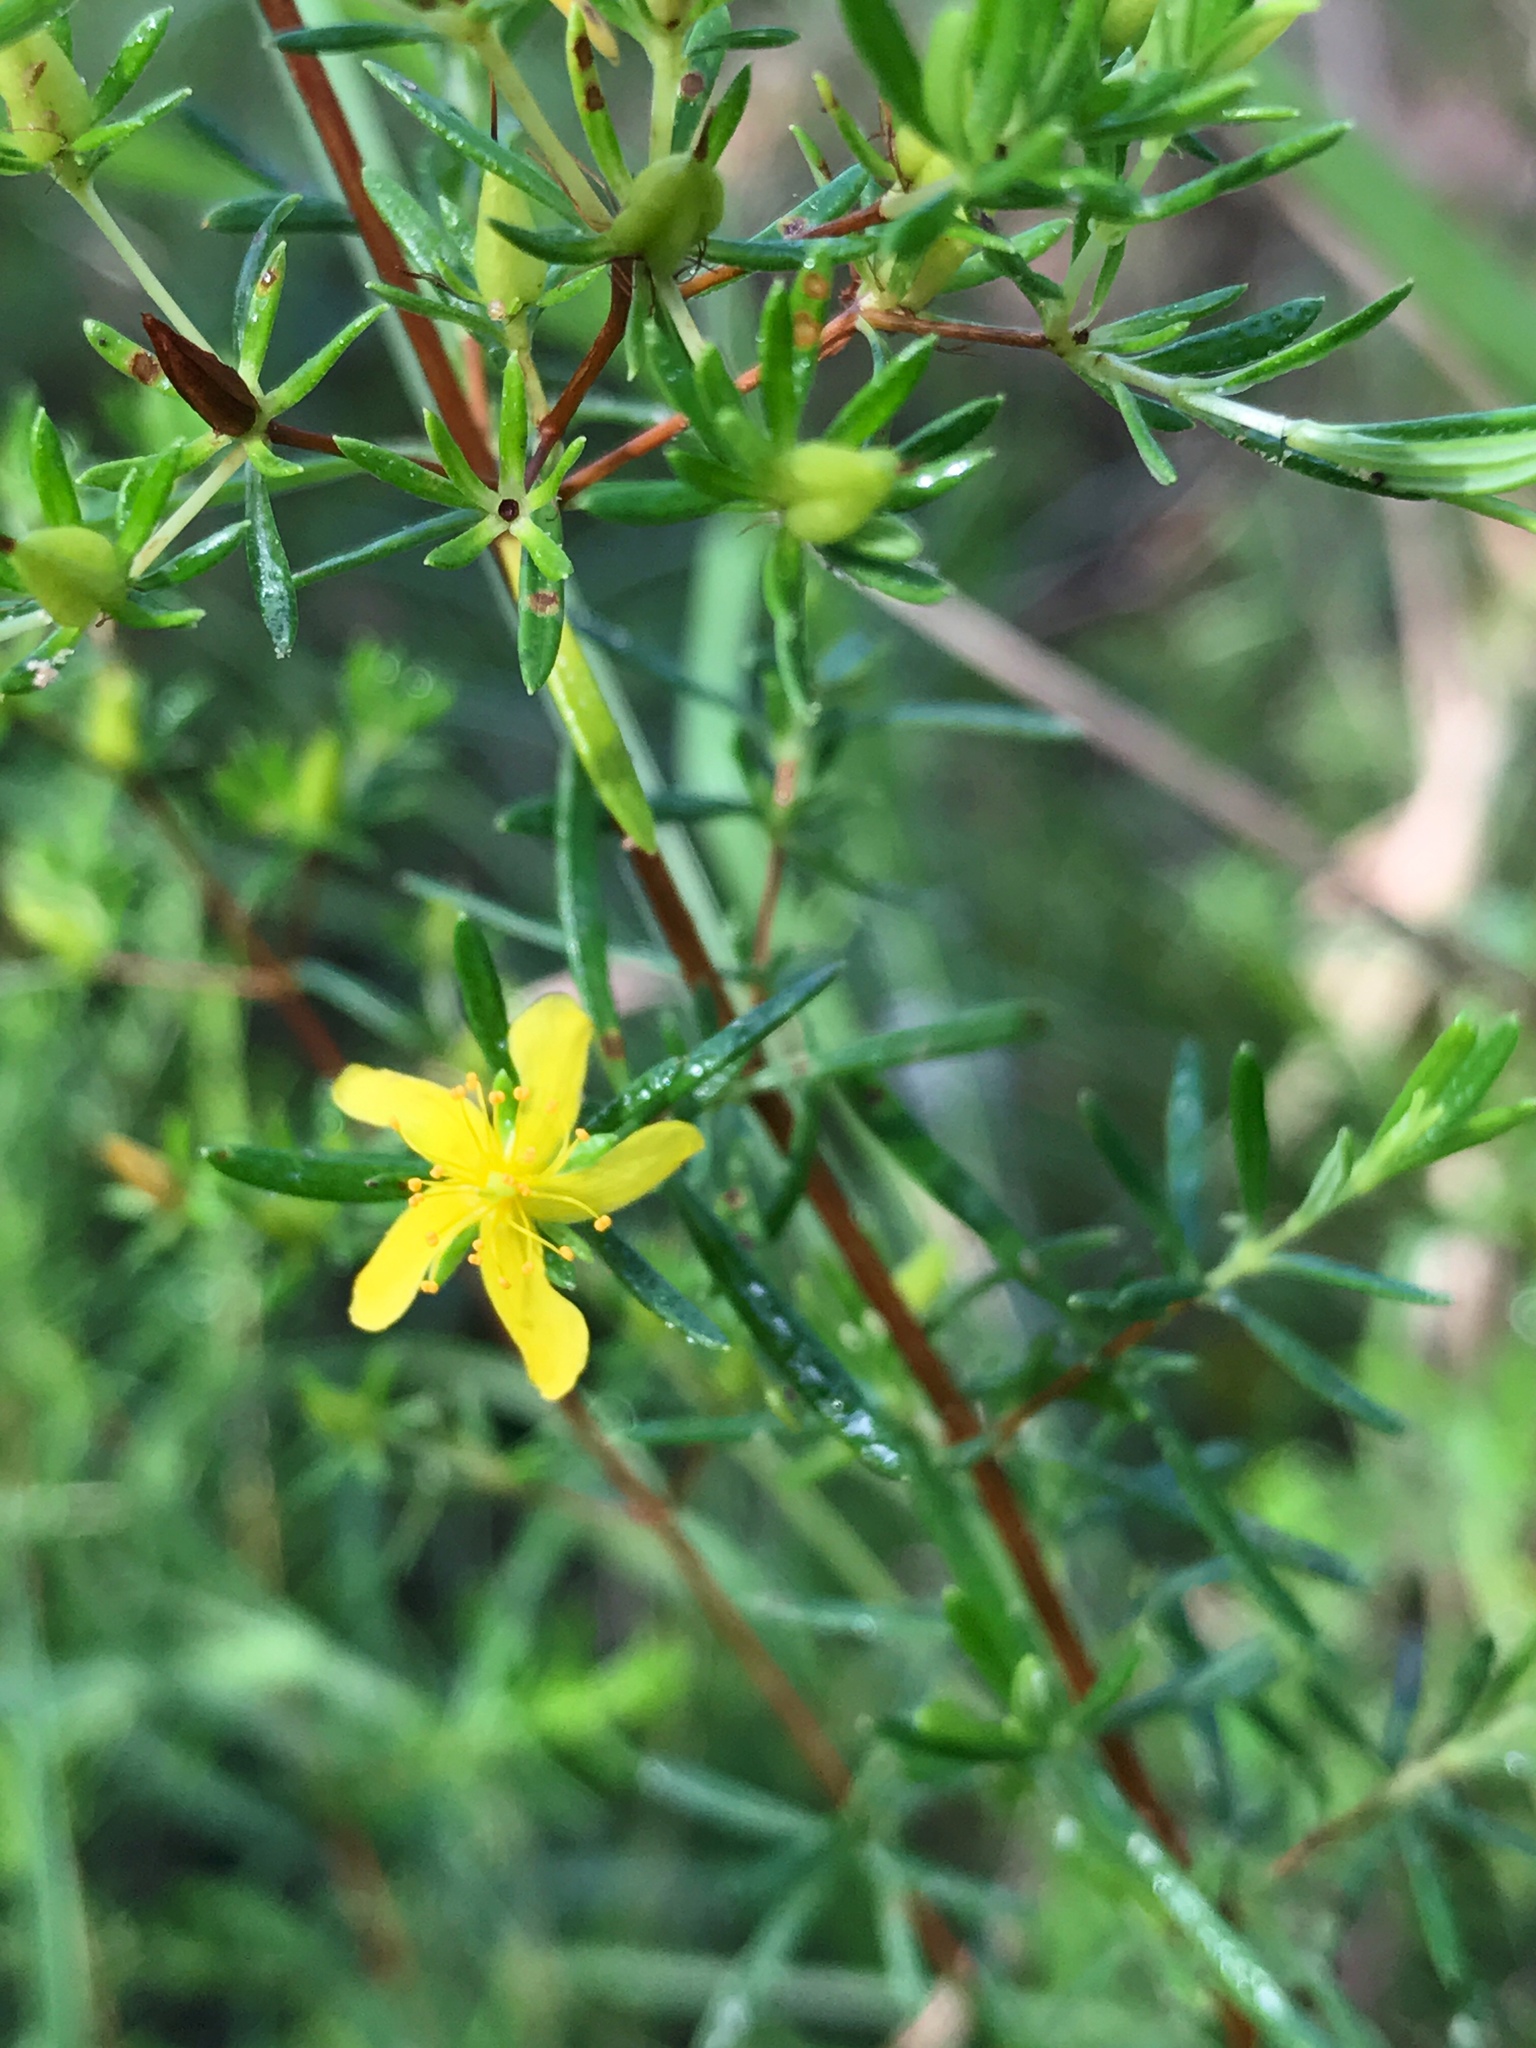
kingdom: Plantae
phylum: Tracheophyta
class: Magnoliopsida
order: Malpighiales
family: Hypericaceae
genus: Hypericum
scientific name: Hypericum galioides
